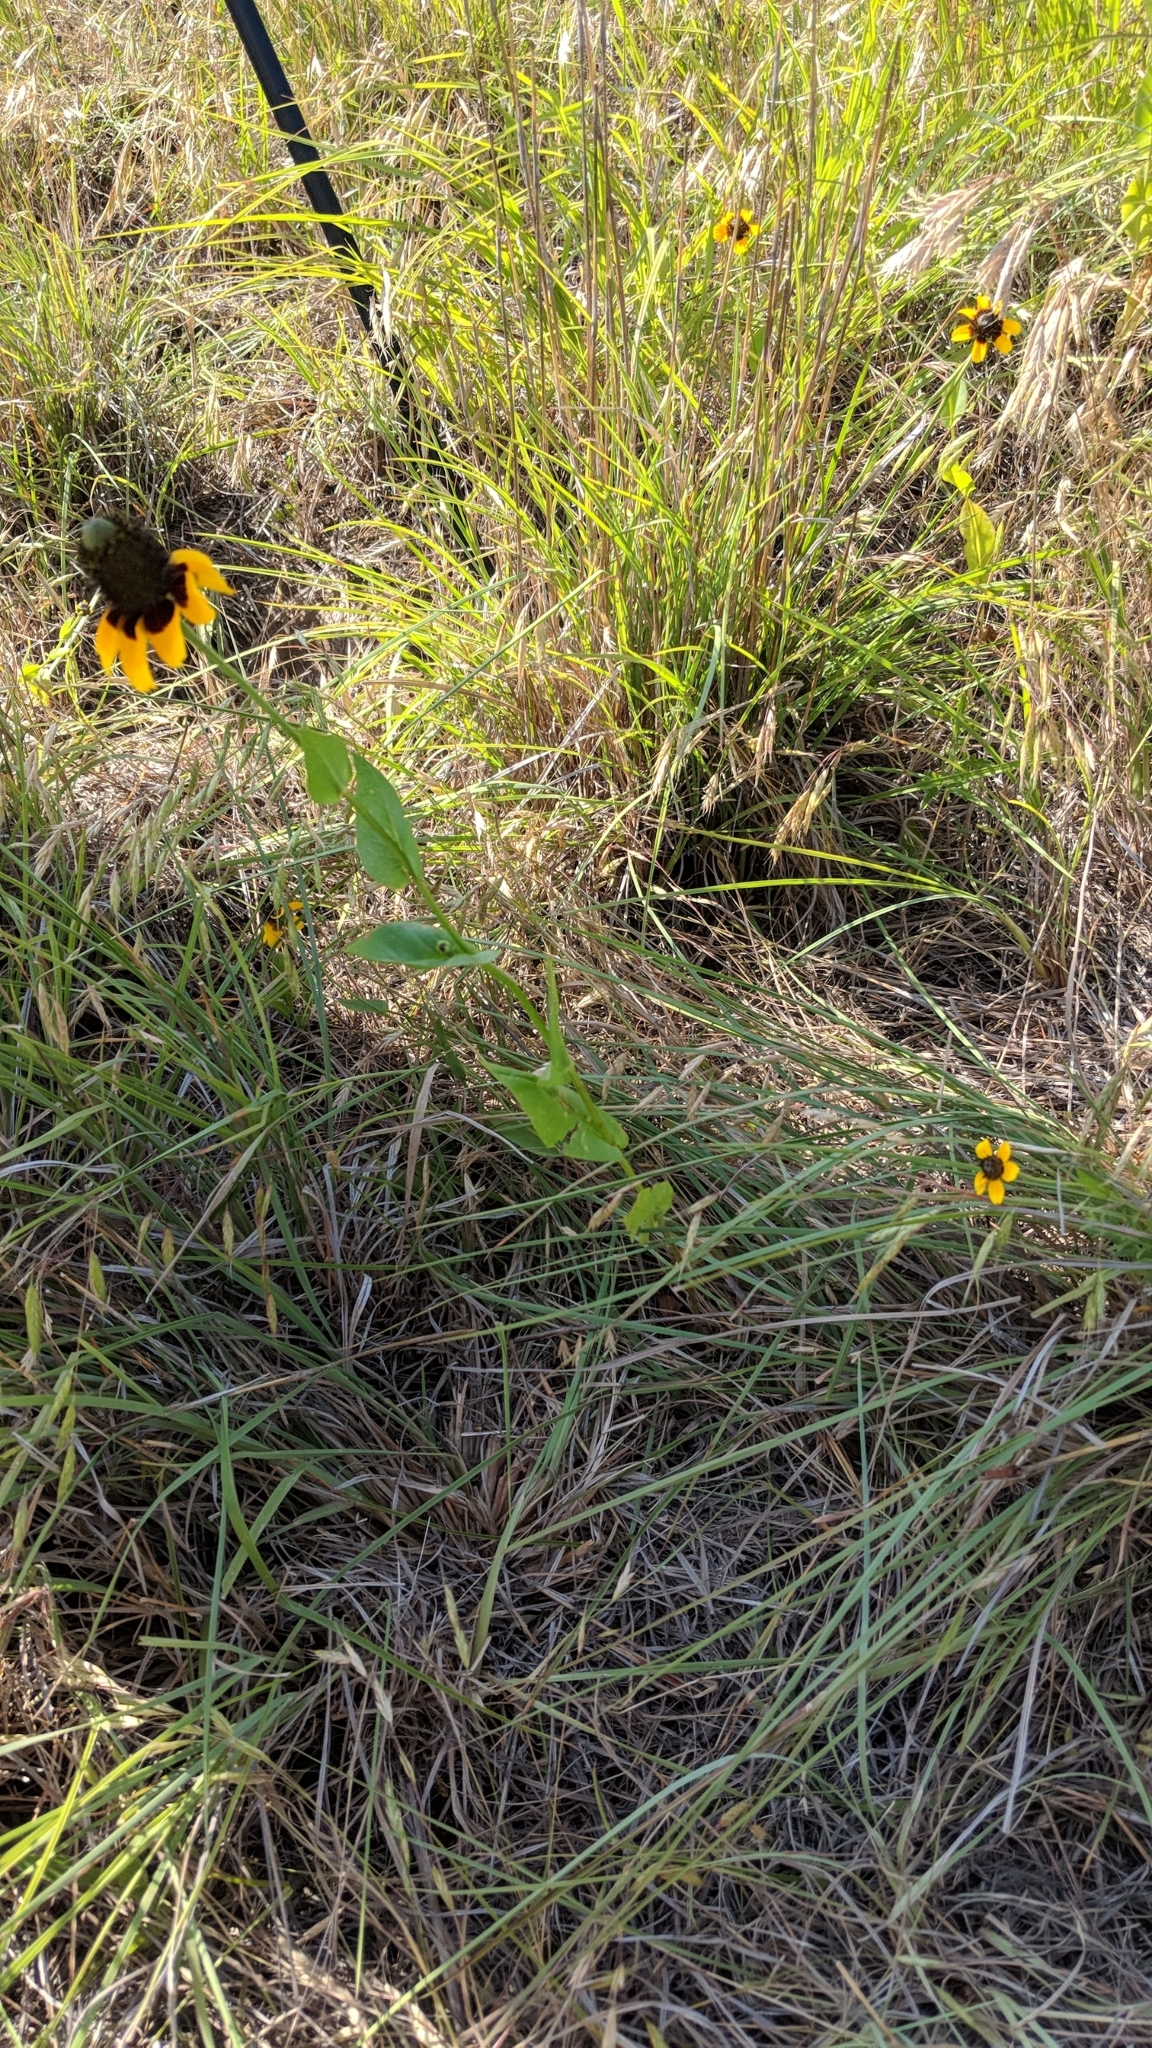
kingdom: Plantae
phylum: Tracheophyta
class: Magnoliopsida
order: Asterales
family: Asteraceae
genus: Rudbeckia
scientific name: Rudbeckia amplexicaulis
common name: Clasping-leaf coneflower
